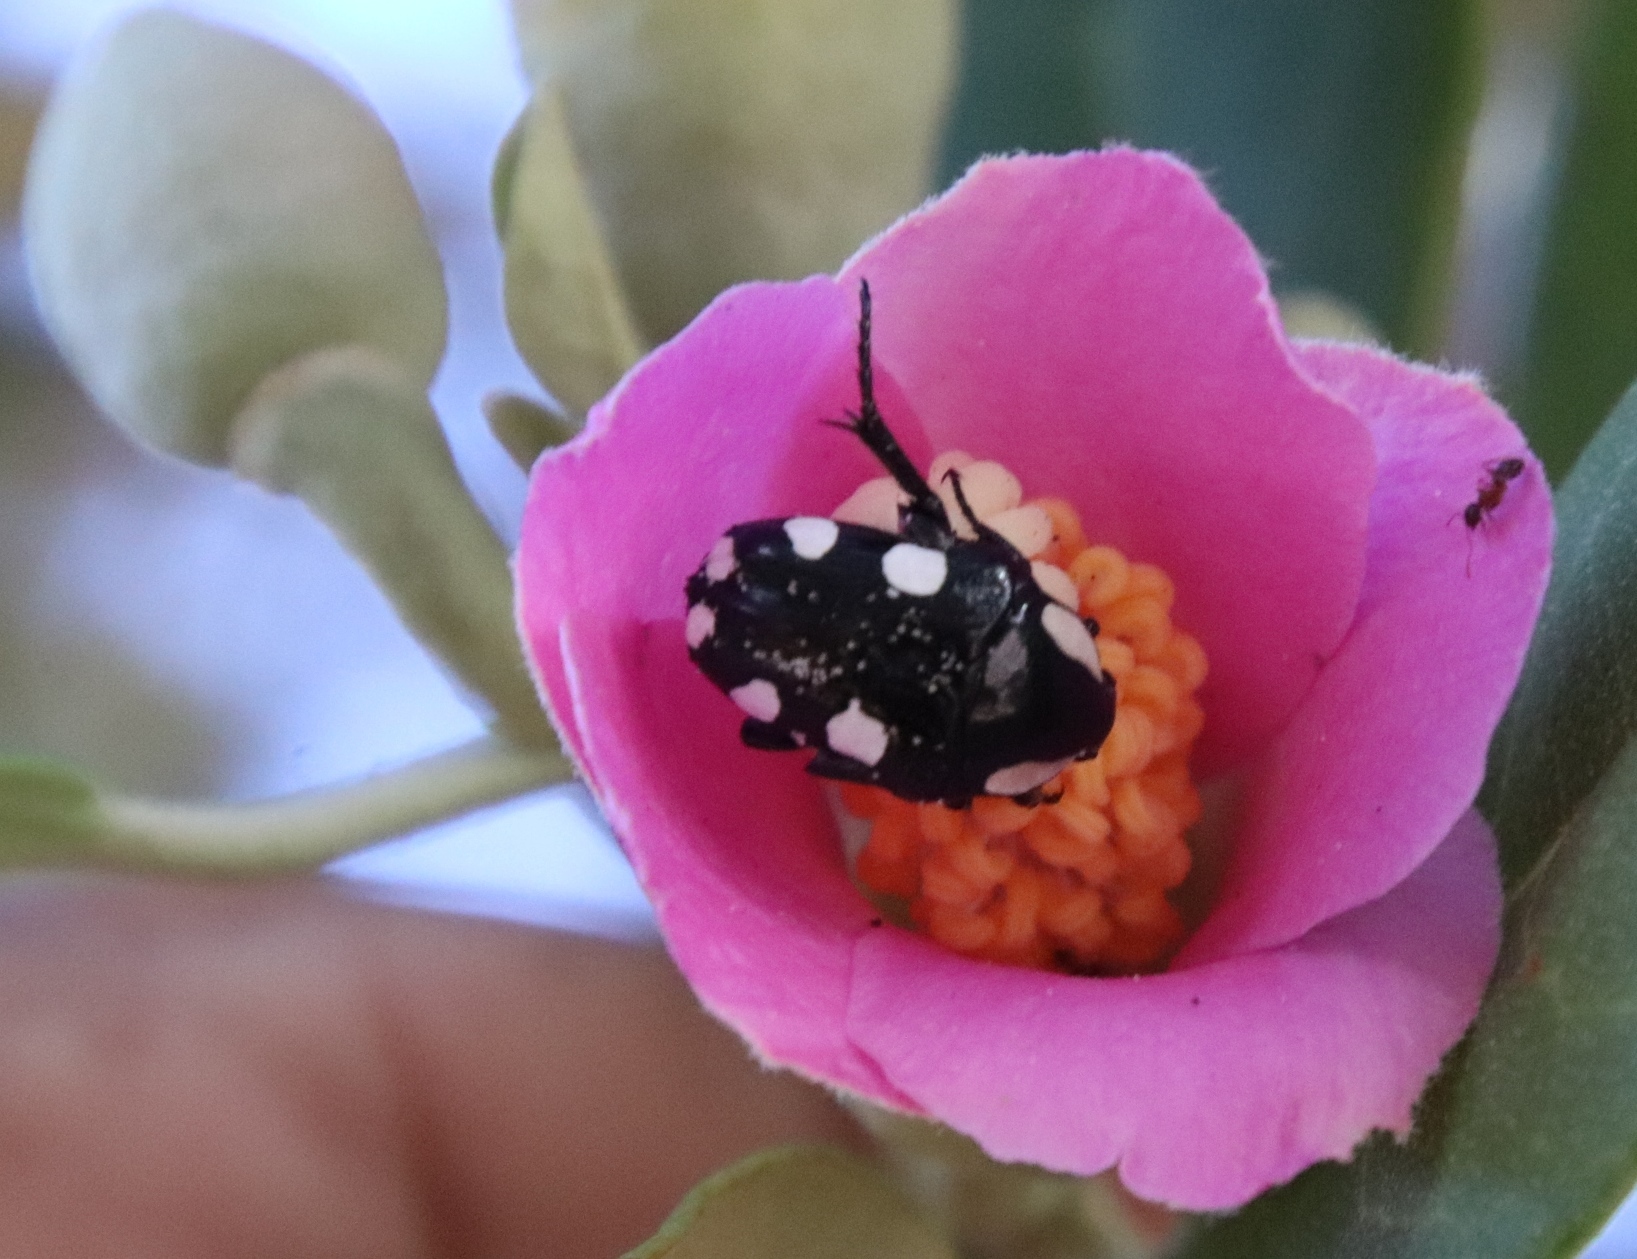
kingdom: Animalia
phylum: Arthropoda
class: Insecta
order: Coleoptera
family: Scarabaeidae
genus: Mausoleopsis
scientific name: Mausoleopsis amabilis
